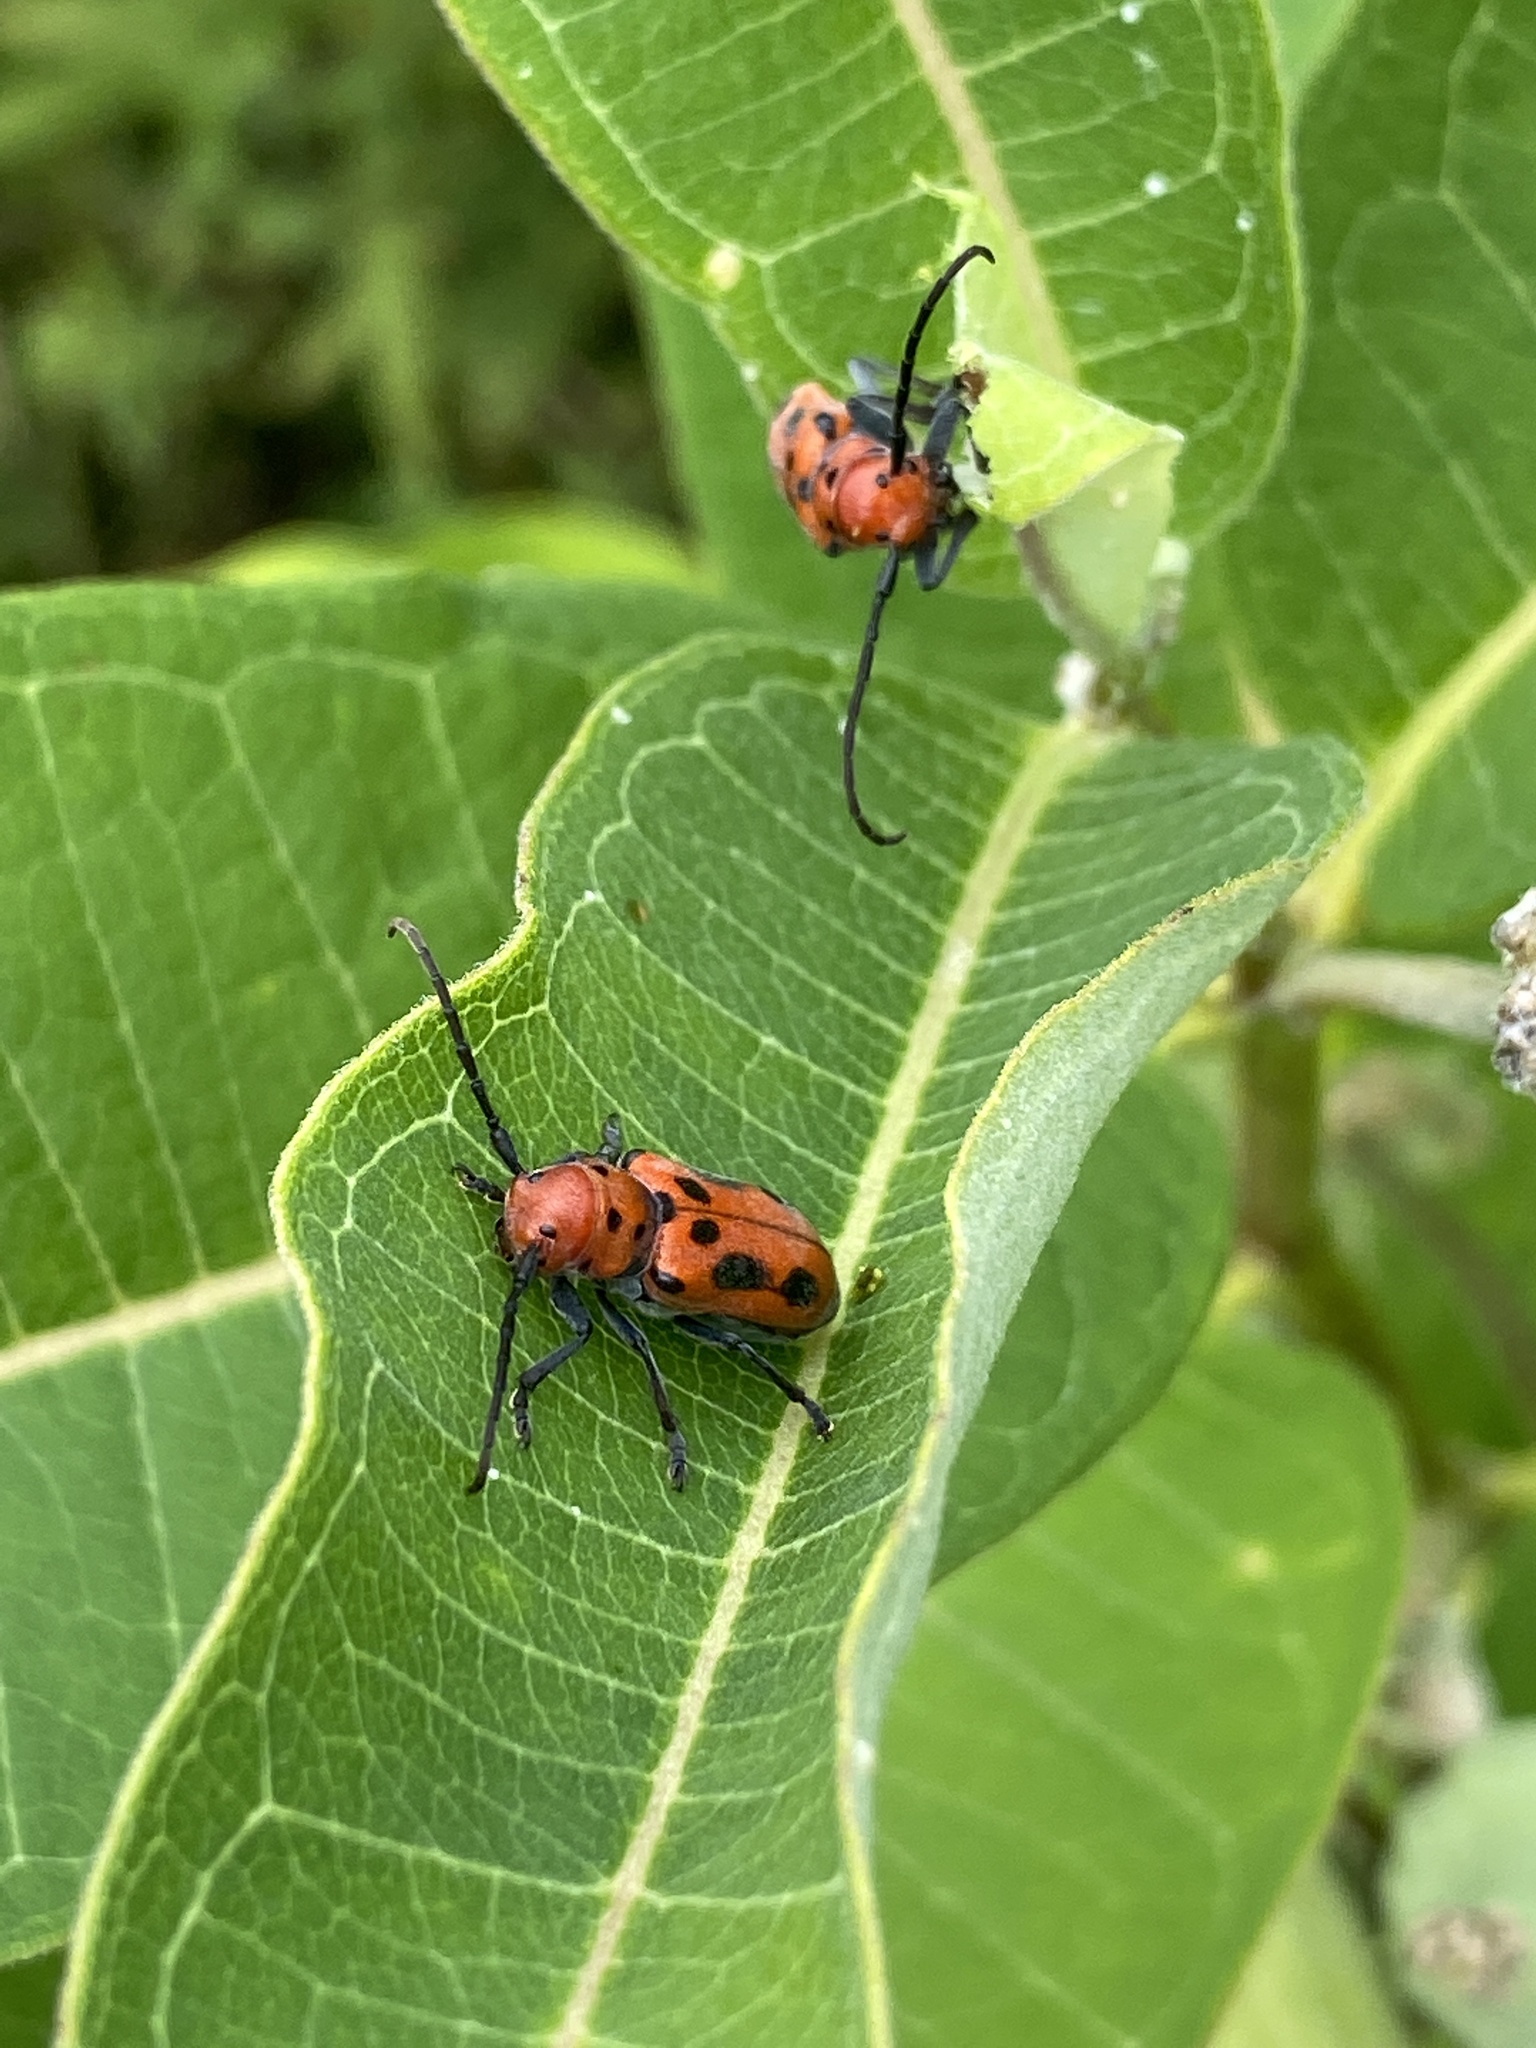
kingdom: Animalia
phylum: Arthropoda
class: Insecta
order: Coleoptera
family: Cerambycidae
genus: Tetraopes
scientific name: Tetraopes tetrophthalmus
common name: Red milkweed beetle
